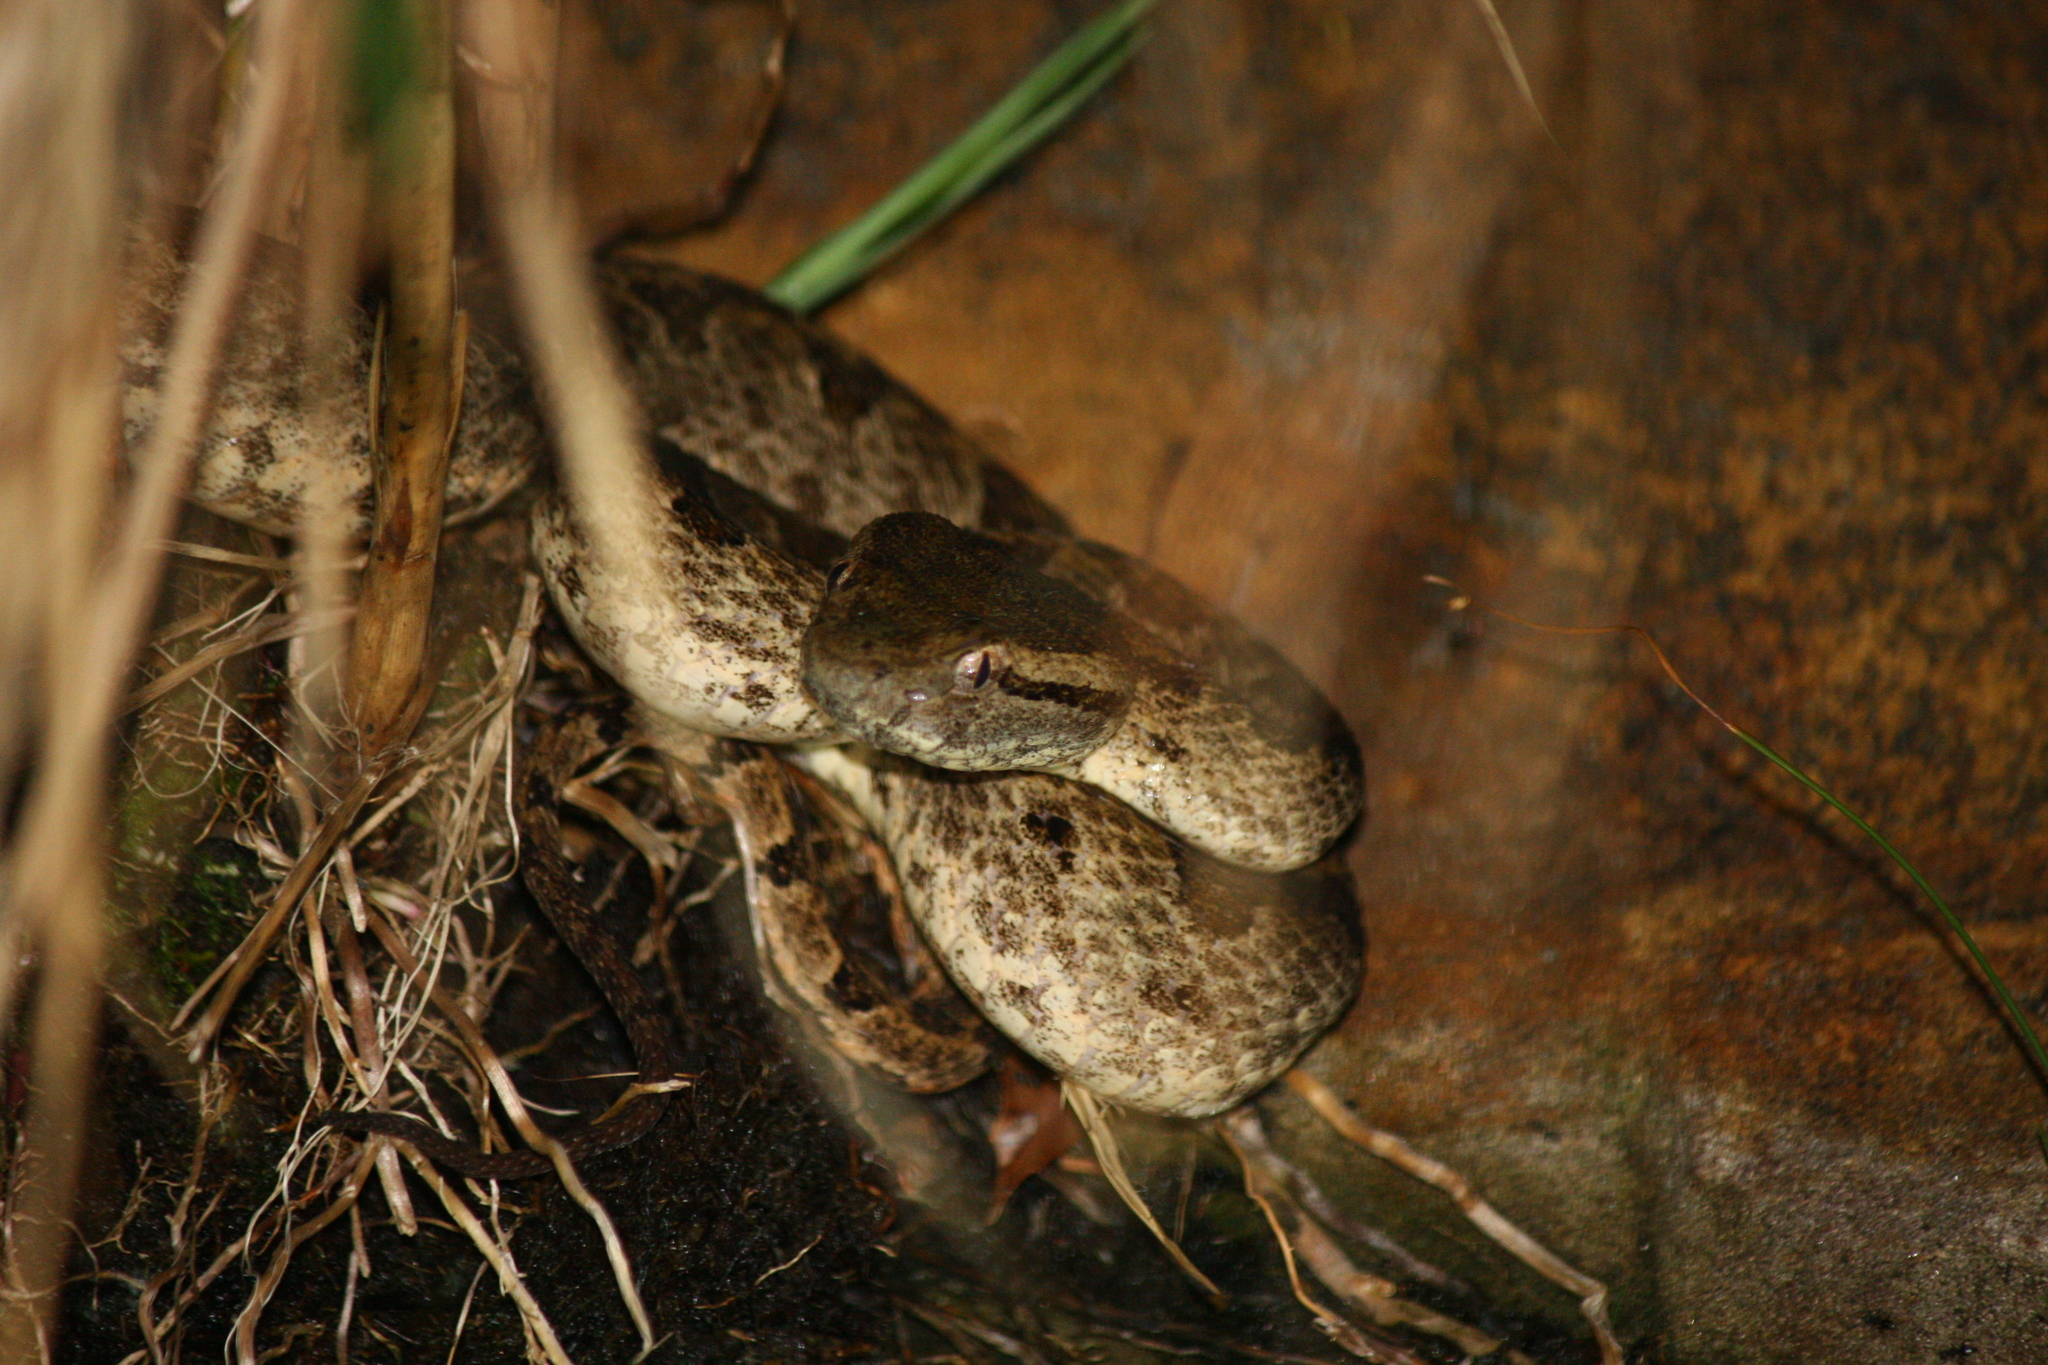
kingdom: Animalia
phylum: Chordata
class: Squamata
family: Viperidae
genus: Protobothrops
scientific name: Protobothrops elegans
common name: Elegant pitviper
